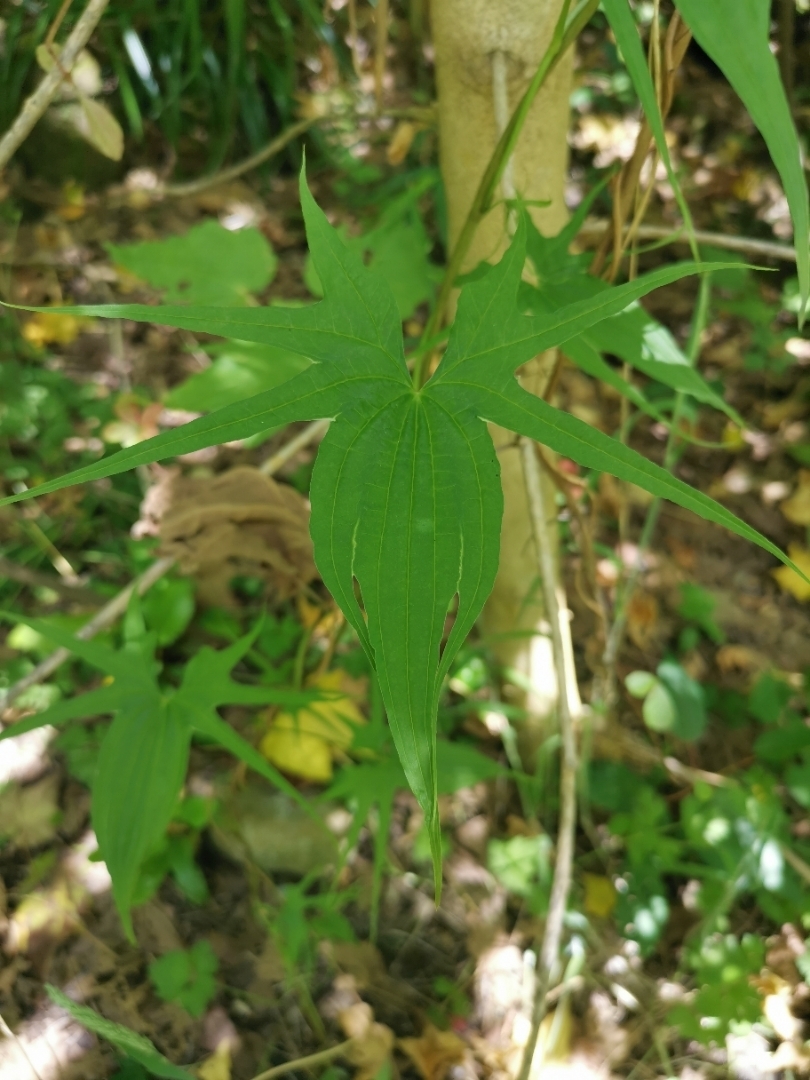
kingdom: Plantae
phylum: Tracheophyta
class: Liliopsida
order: Dioscoreales
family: Dioscoreaceae
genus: Dioscorea
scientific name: Dioscorea brachybotrya
